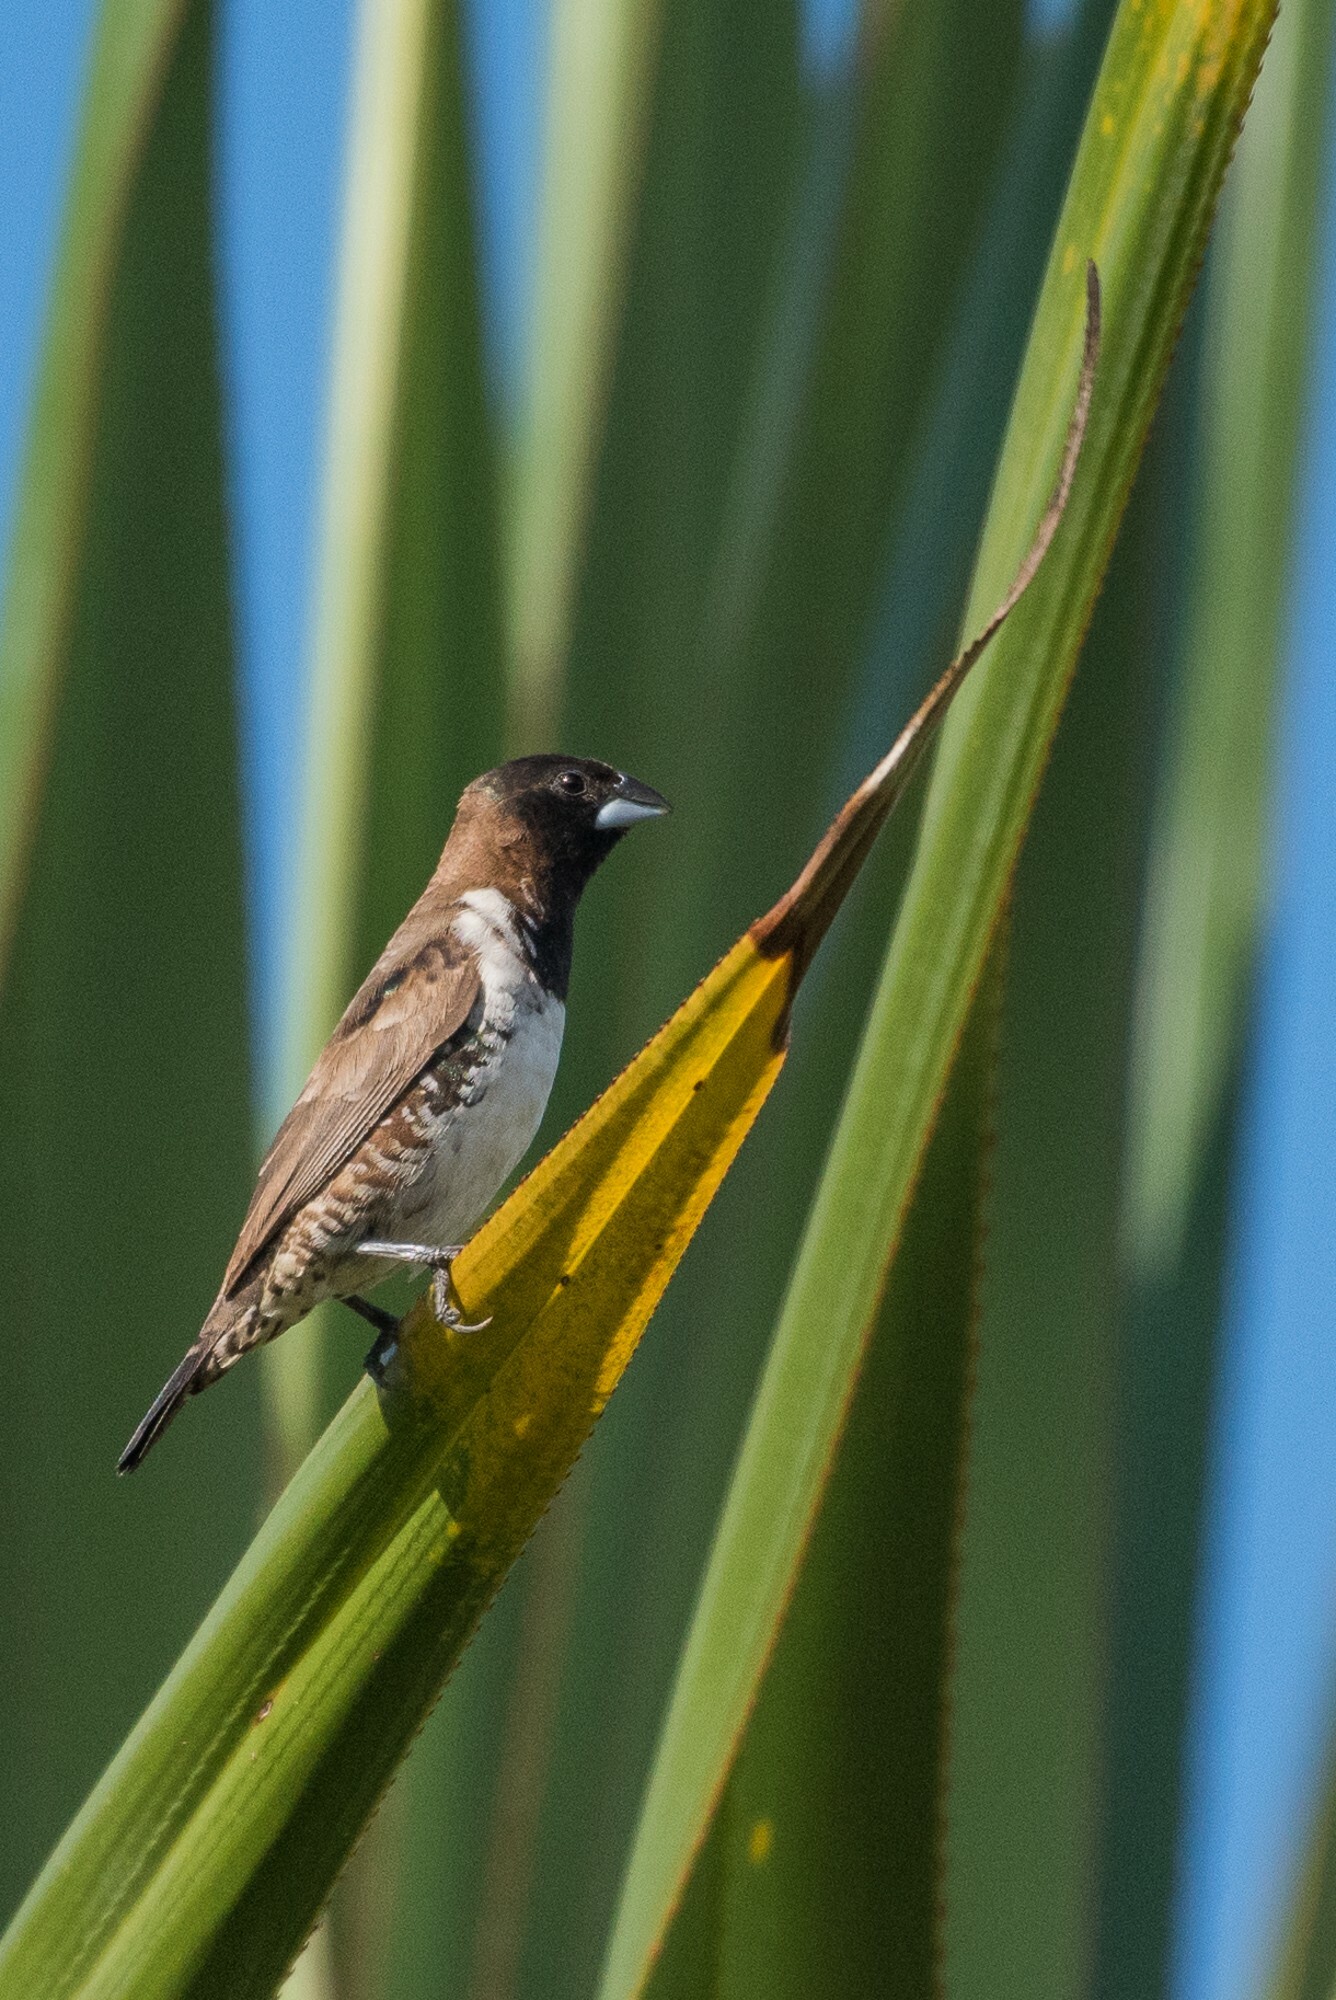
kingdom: Animalia
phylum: Chordata
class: Aves
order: Passeriformes
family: Estrildidae
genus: Lonchura
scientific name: Lonchura cucullata
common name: Bronze mannikin
